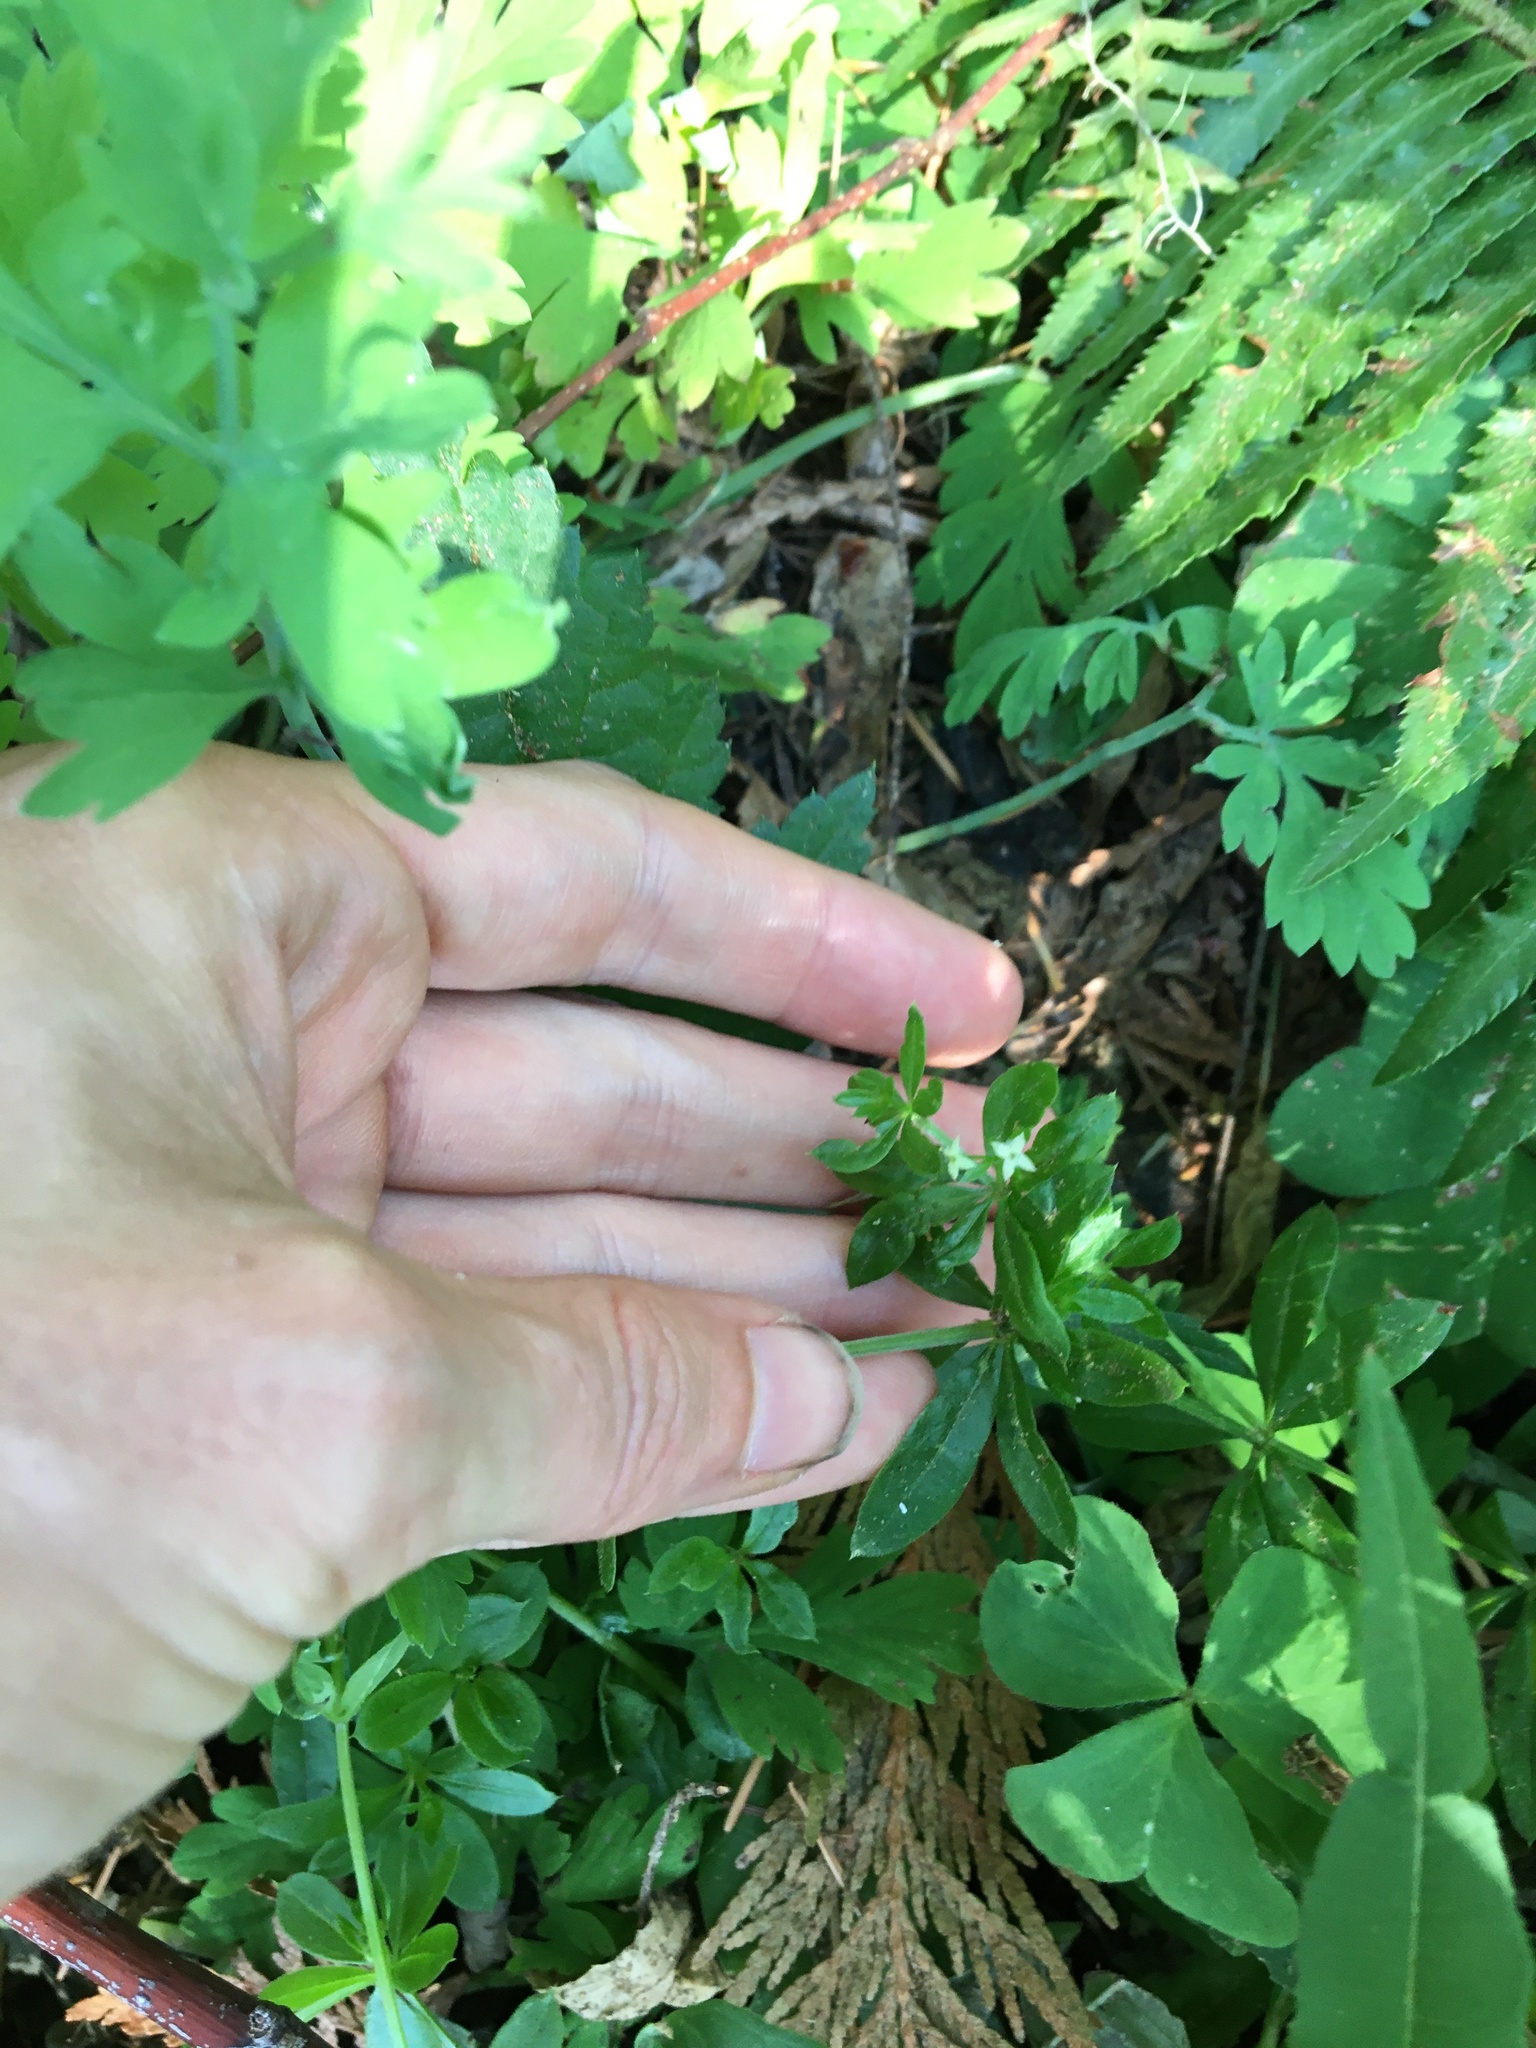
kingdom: Plantae
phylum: Tracheophyta
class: Magnoliopsida
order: Gentianales
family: Rubiaceae
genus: Galium
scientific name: Galium triflorum
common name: Fragrant bedstraw
